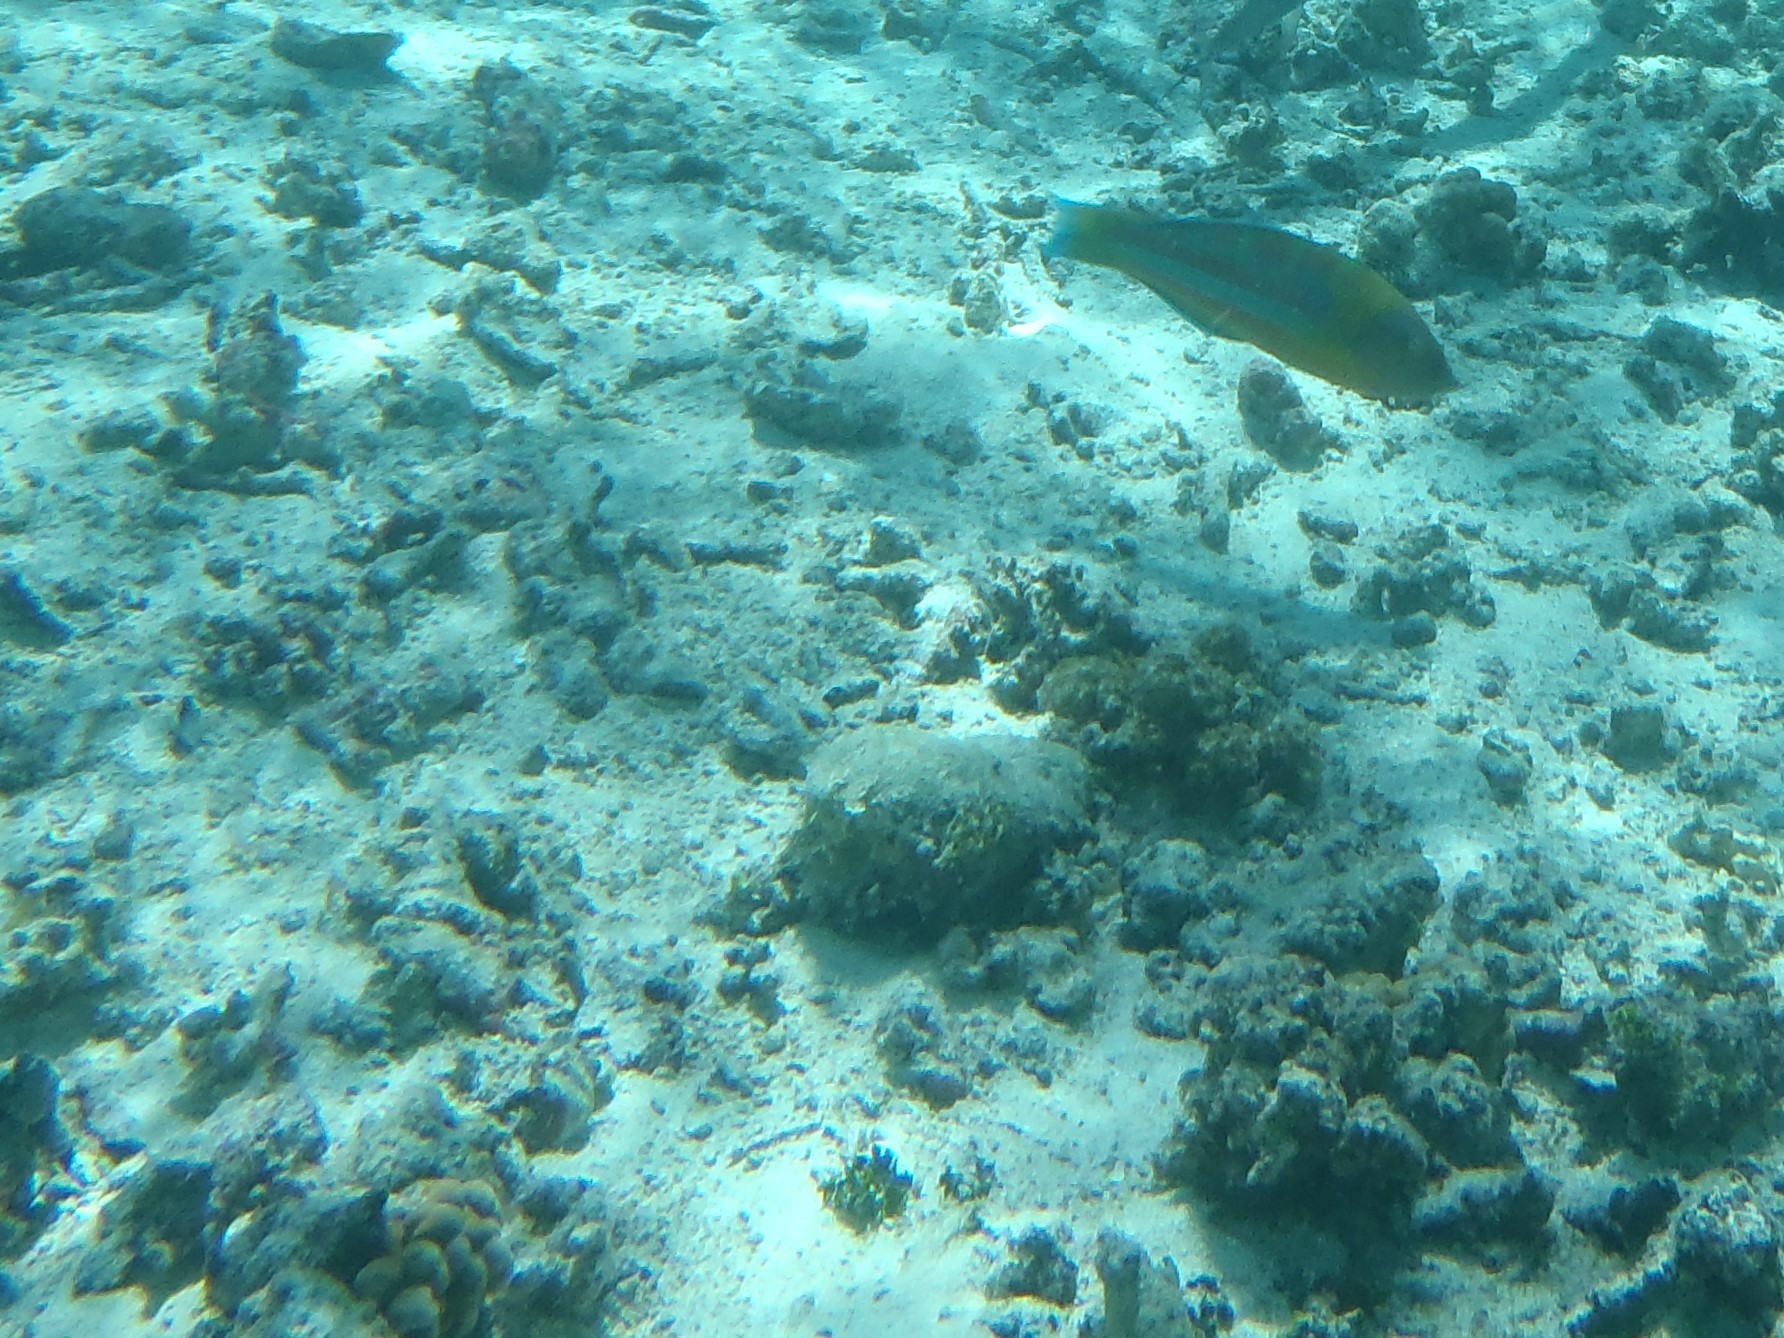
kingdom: Animalia
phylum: Chordata
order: Perciformes
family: Labridae
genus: Thalassoma
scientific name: Thalassoma trilobatum
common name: Christmas wrasse
